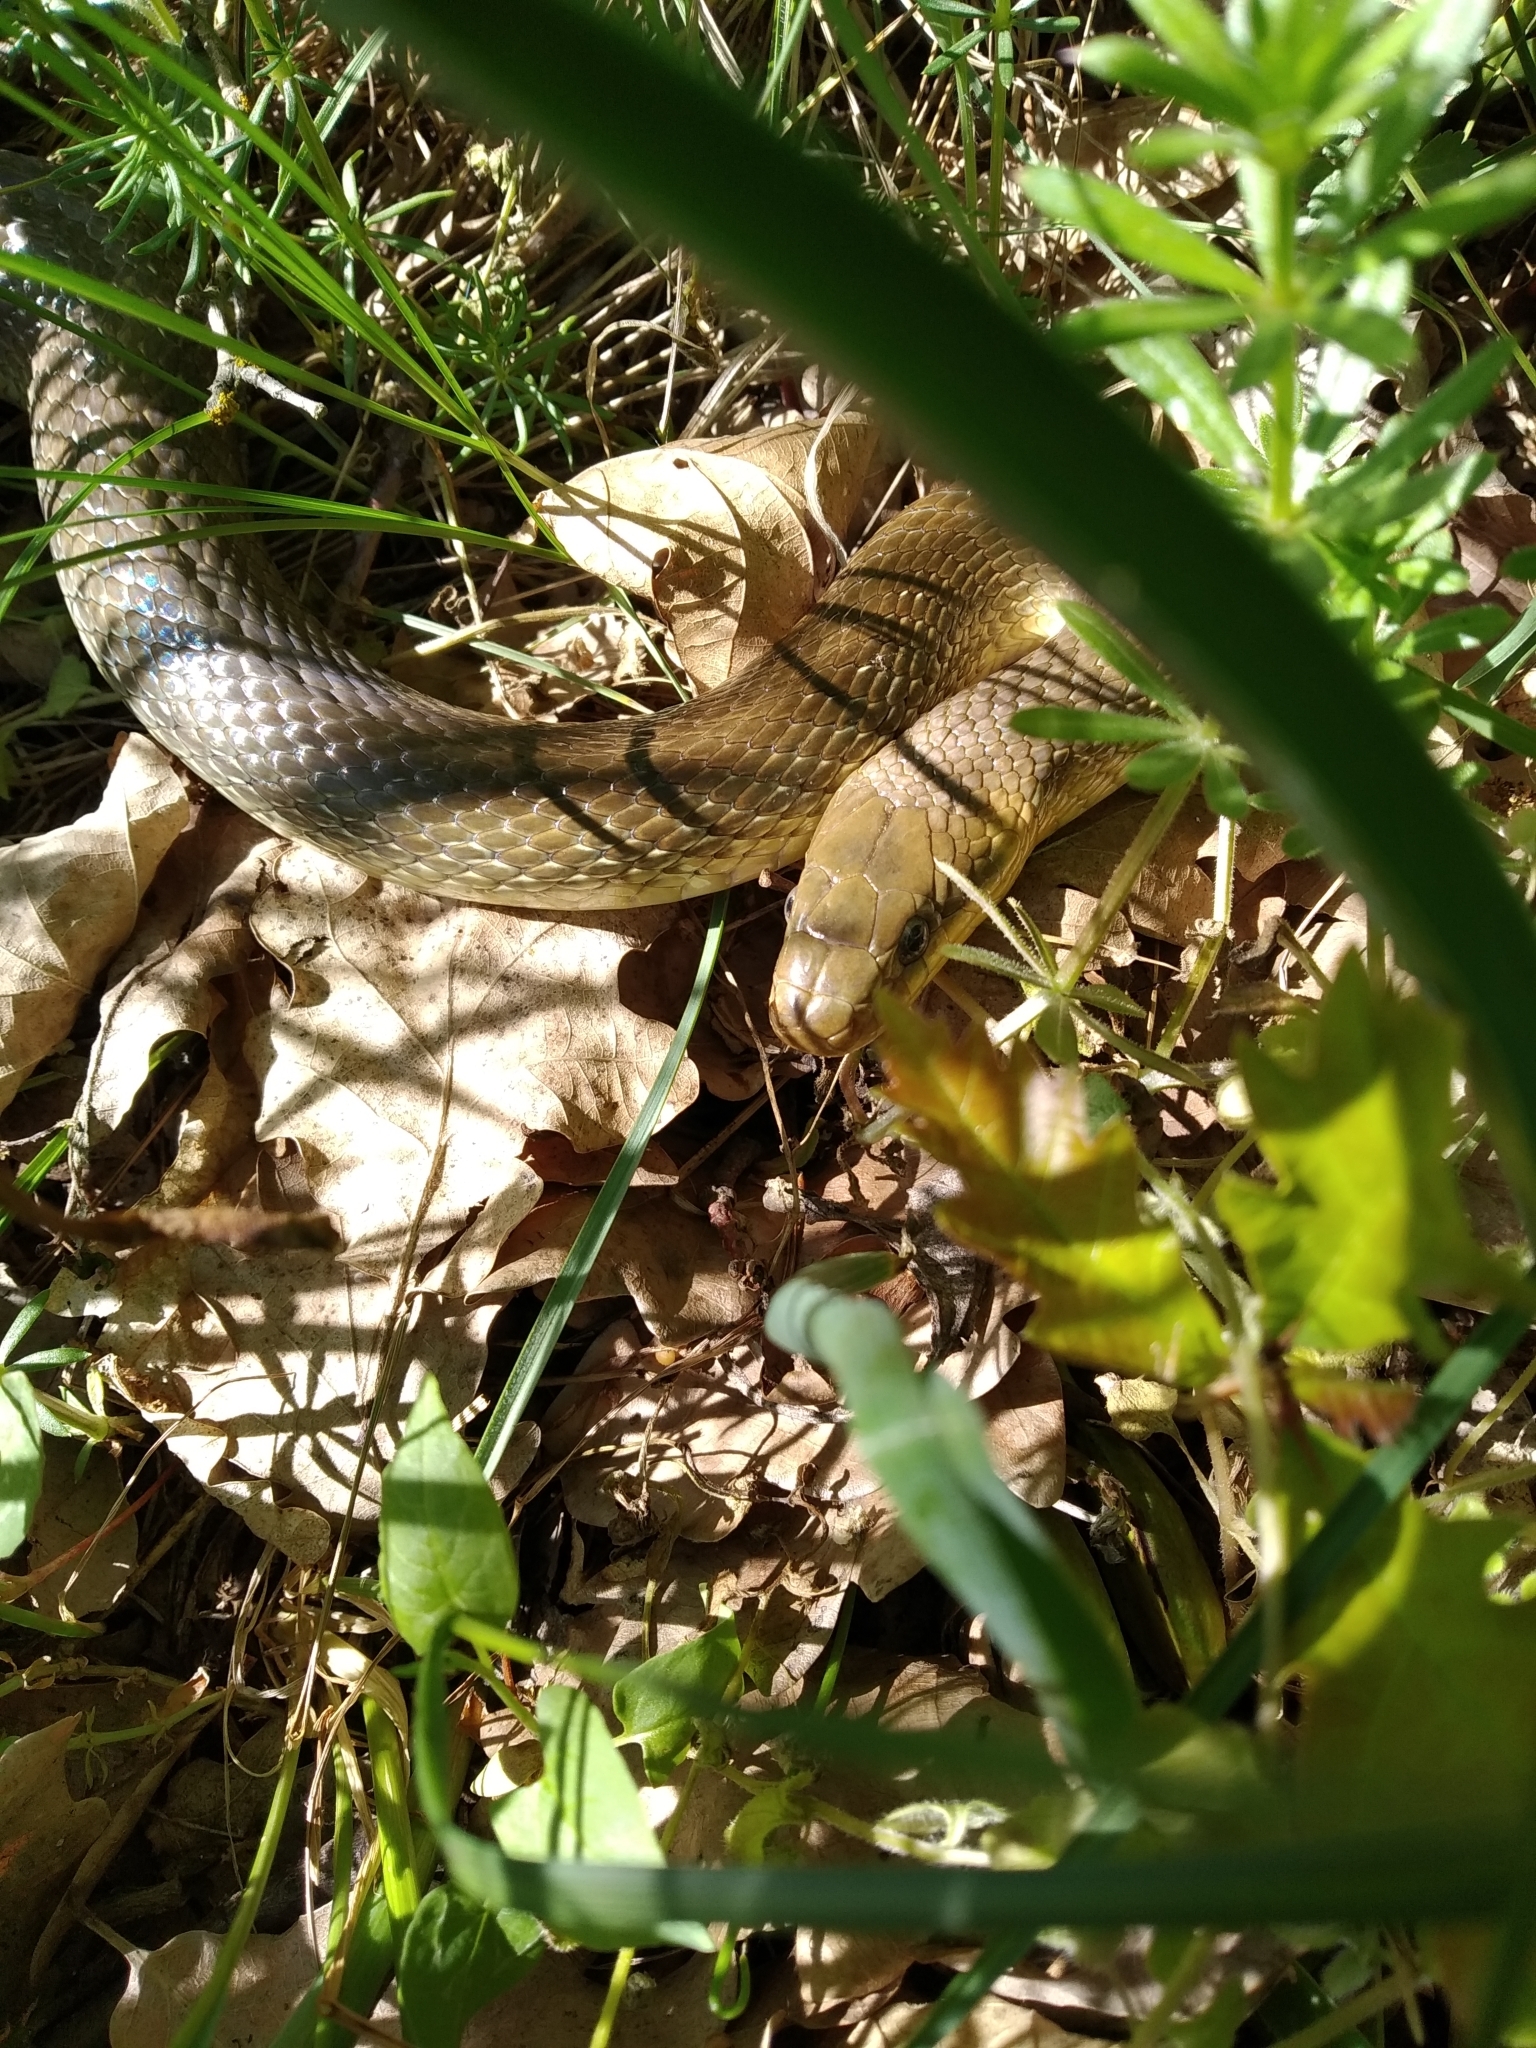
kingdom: Animalia
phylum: Chordata
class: Squamata
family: Colubridae
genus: Zamenis
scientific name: Zamenis longissimus
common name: Aesculapean snake
